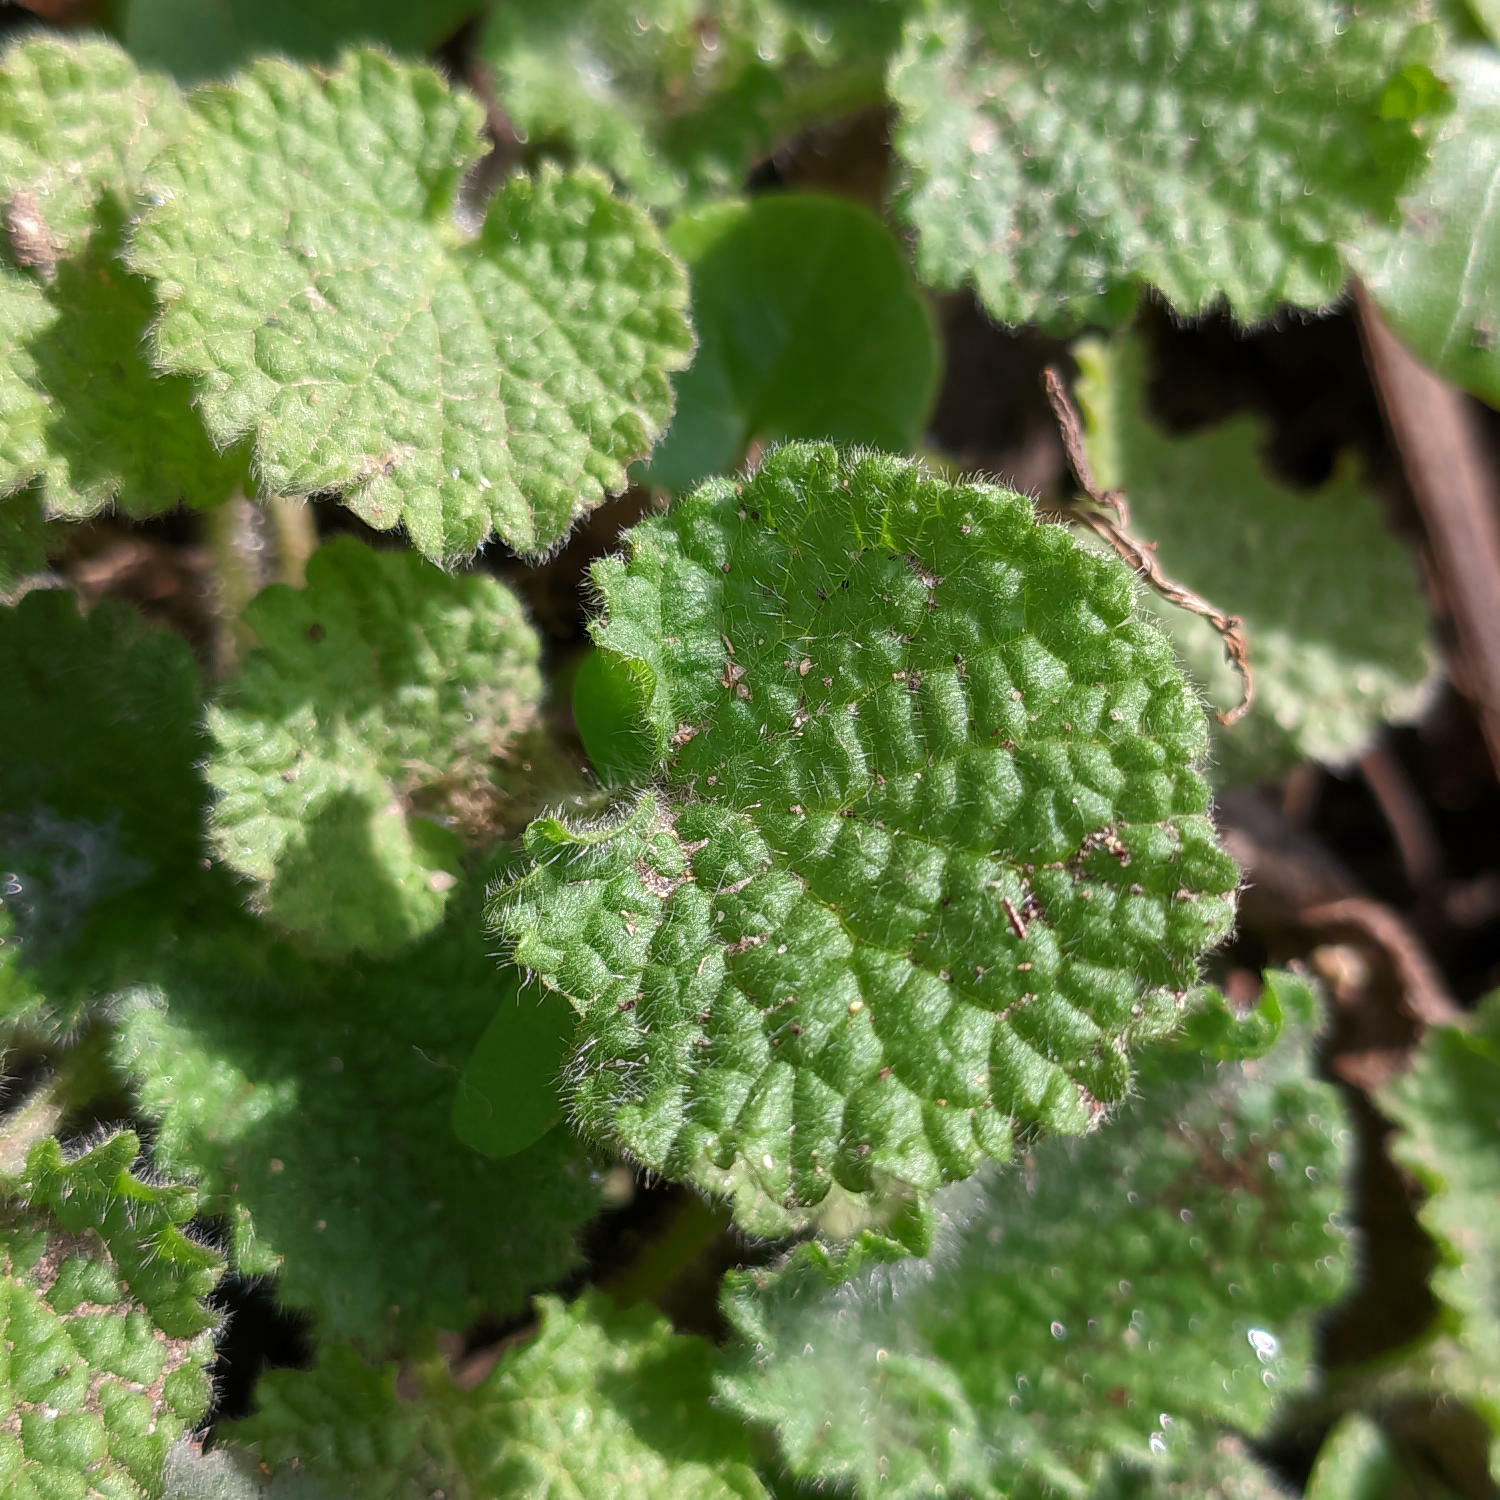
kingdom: Plantae
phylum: Tracheophyta
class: Magnoliopsida
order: Lamiales
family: Lamiaceae
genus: Ballota
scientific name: Ballota nigra
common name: Black horehound
